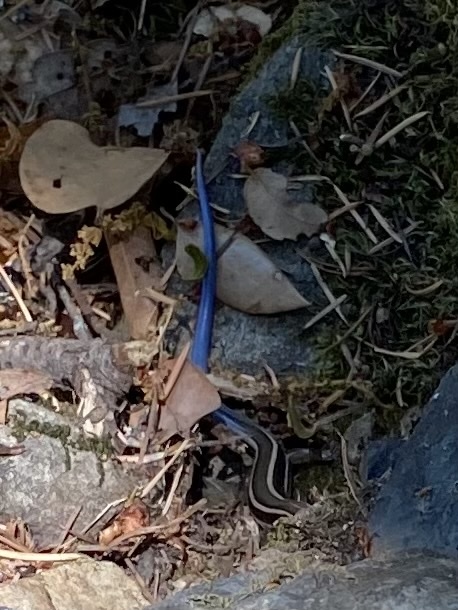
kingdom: Animalia
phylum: Chordata
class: Squamata
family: Scincidae
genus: Plestiodon
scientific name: Plestiodon skiltonianus
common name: Coronado island skink [interparietalis]
